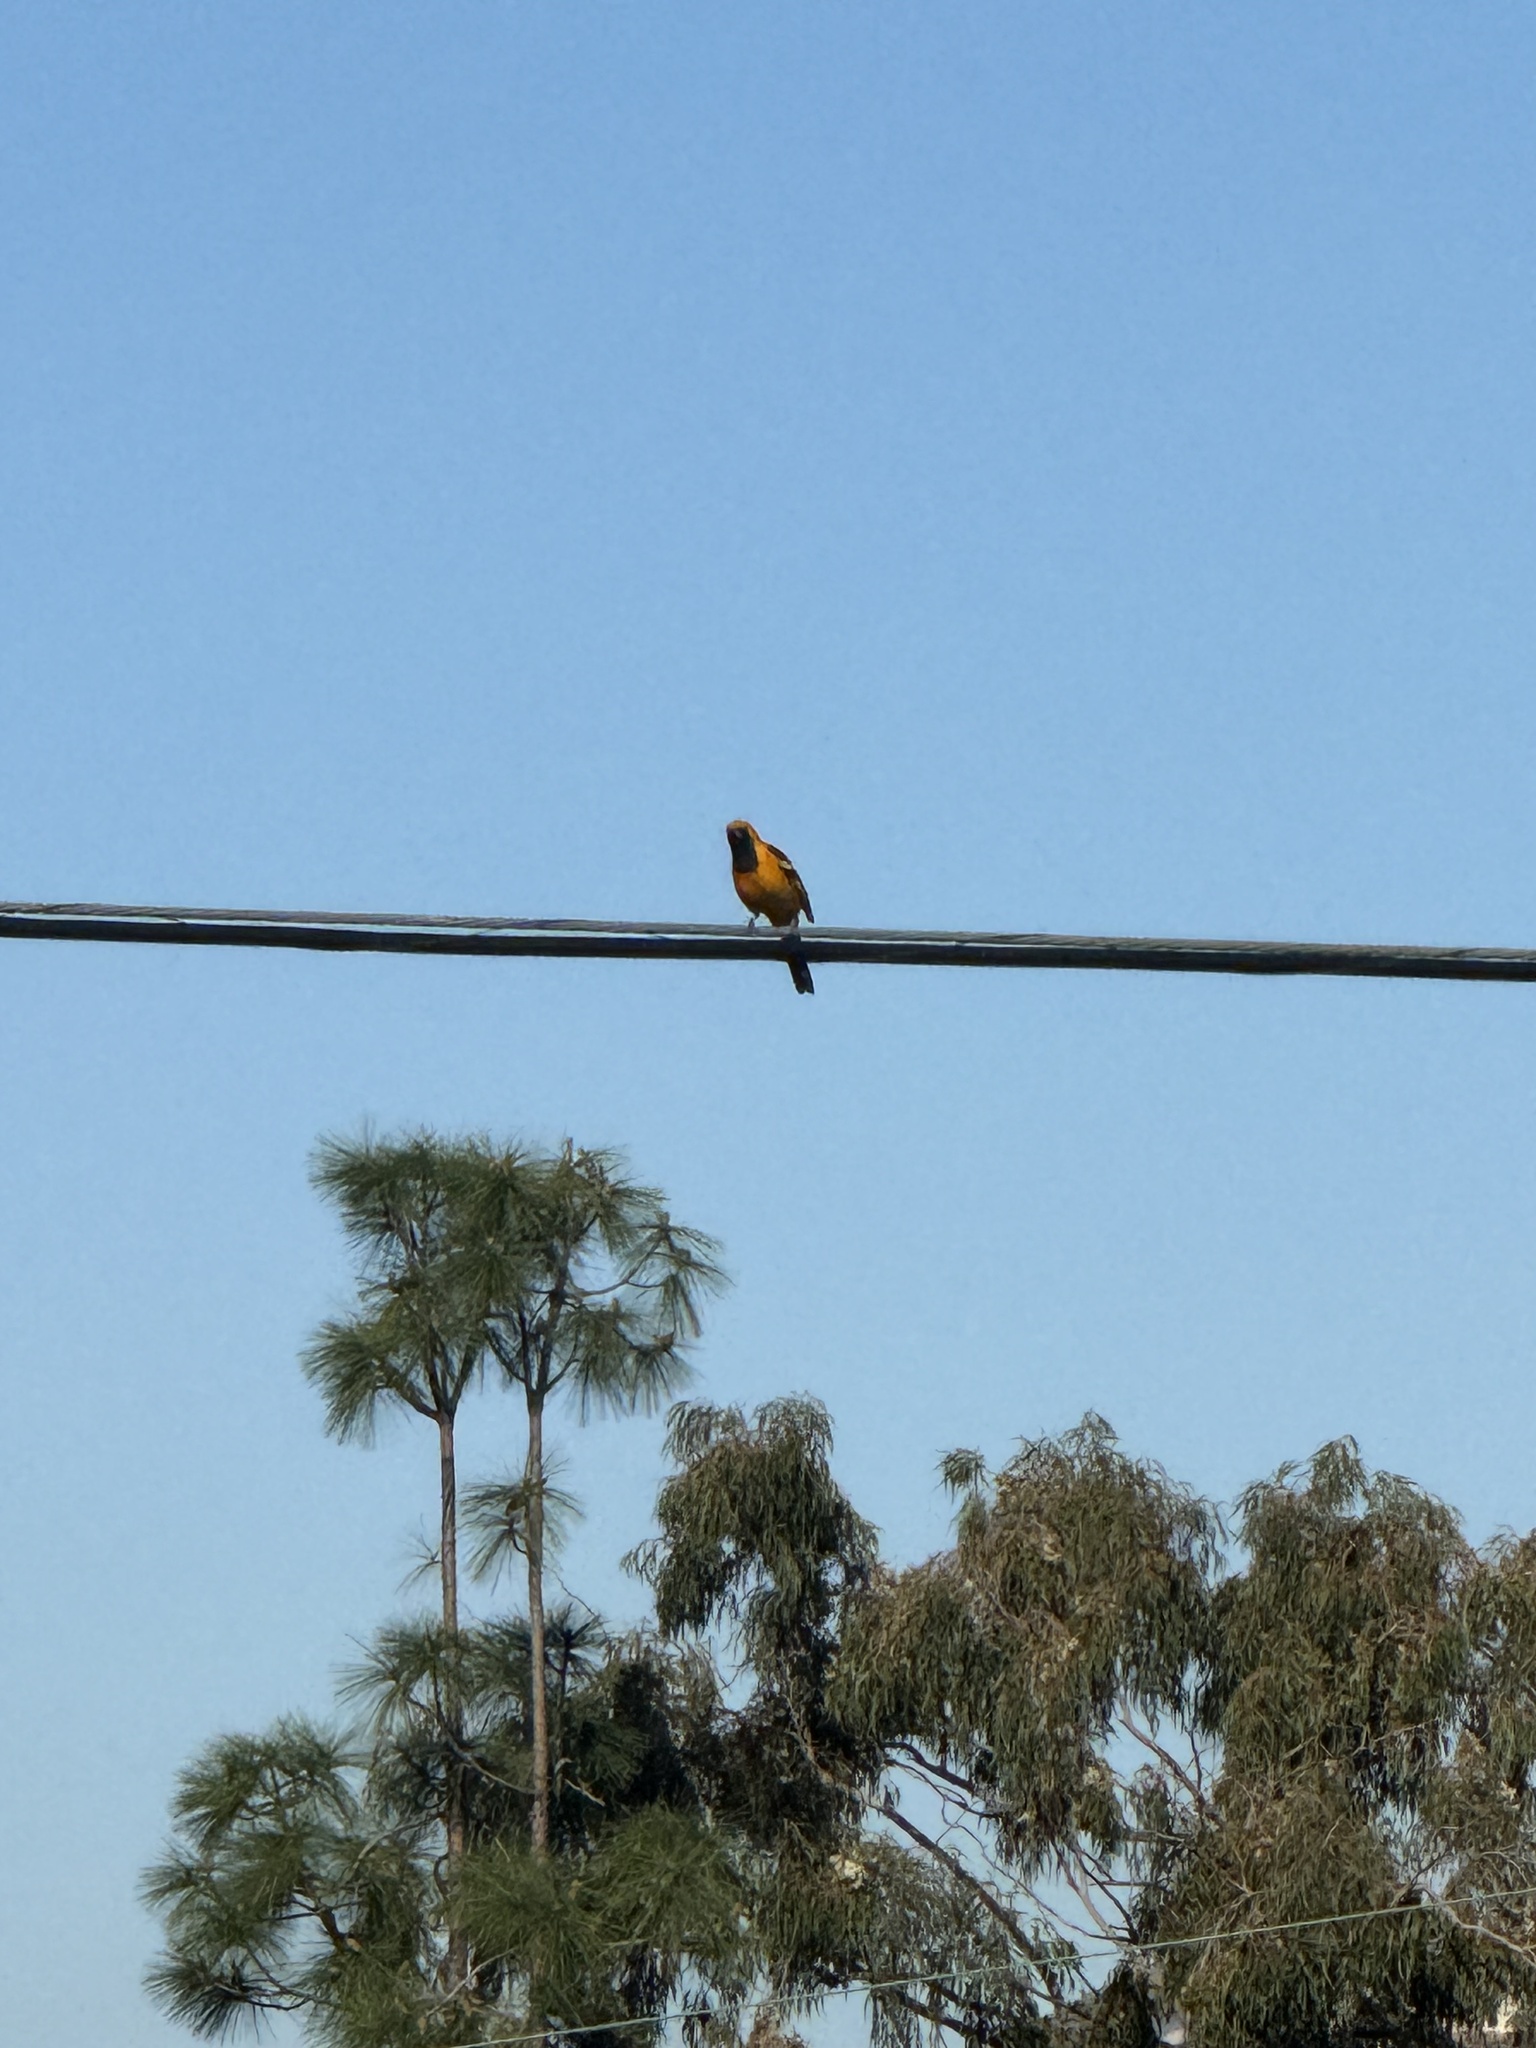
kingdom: Animalia
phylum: Chordata
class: Aves
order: Passeriformes
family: Icteridae
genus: Icterus
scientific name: Icterus cucullatus
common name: Hooded oriole
